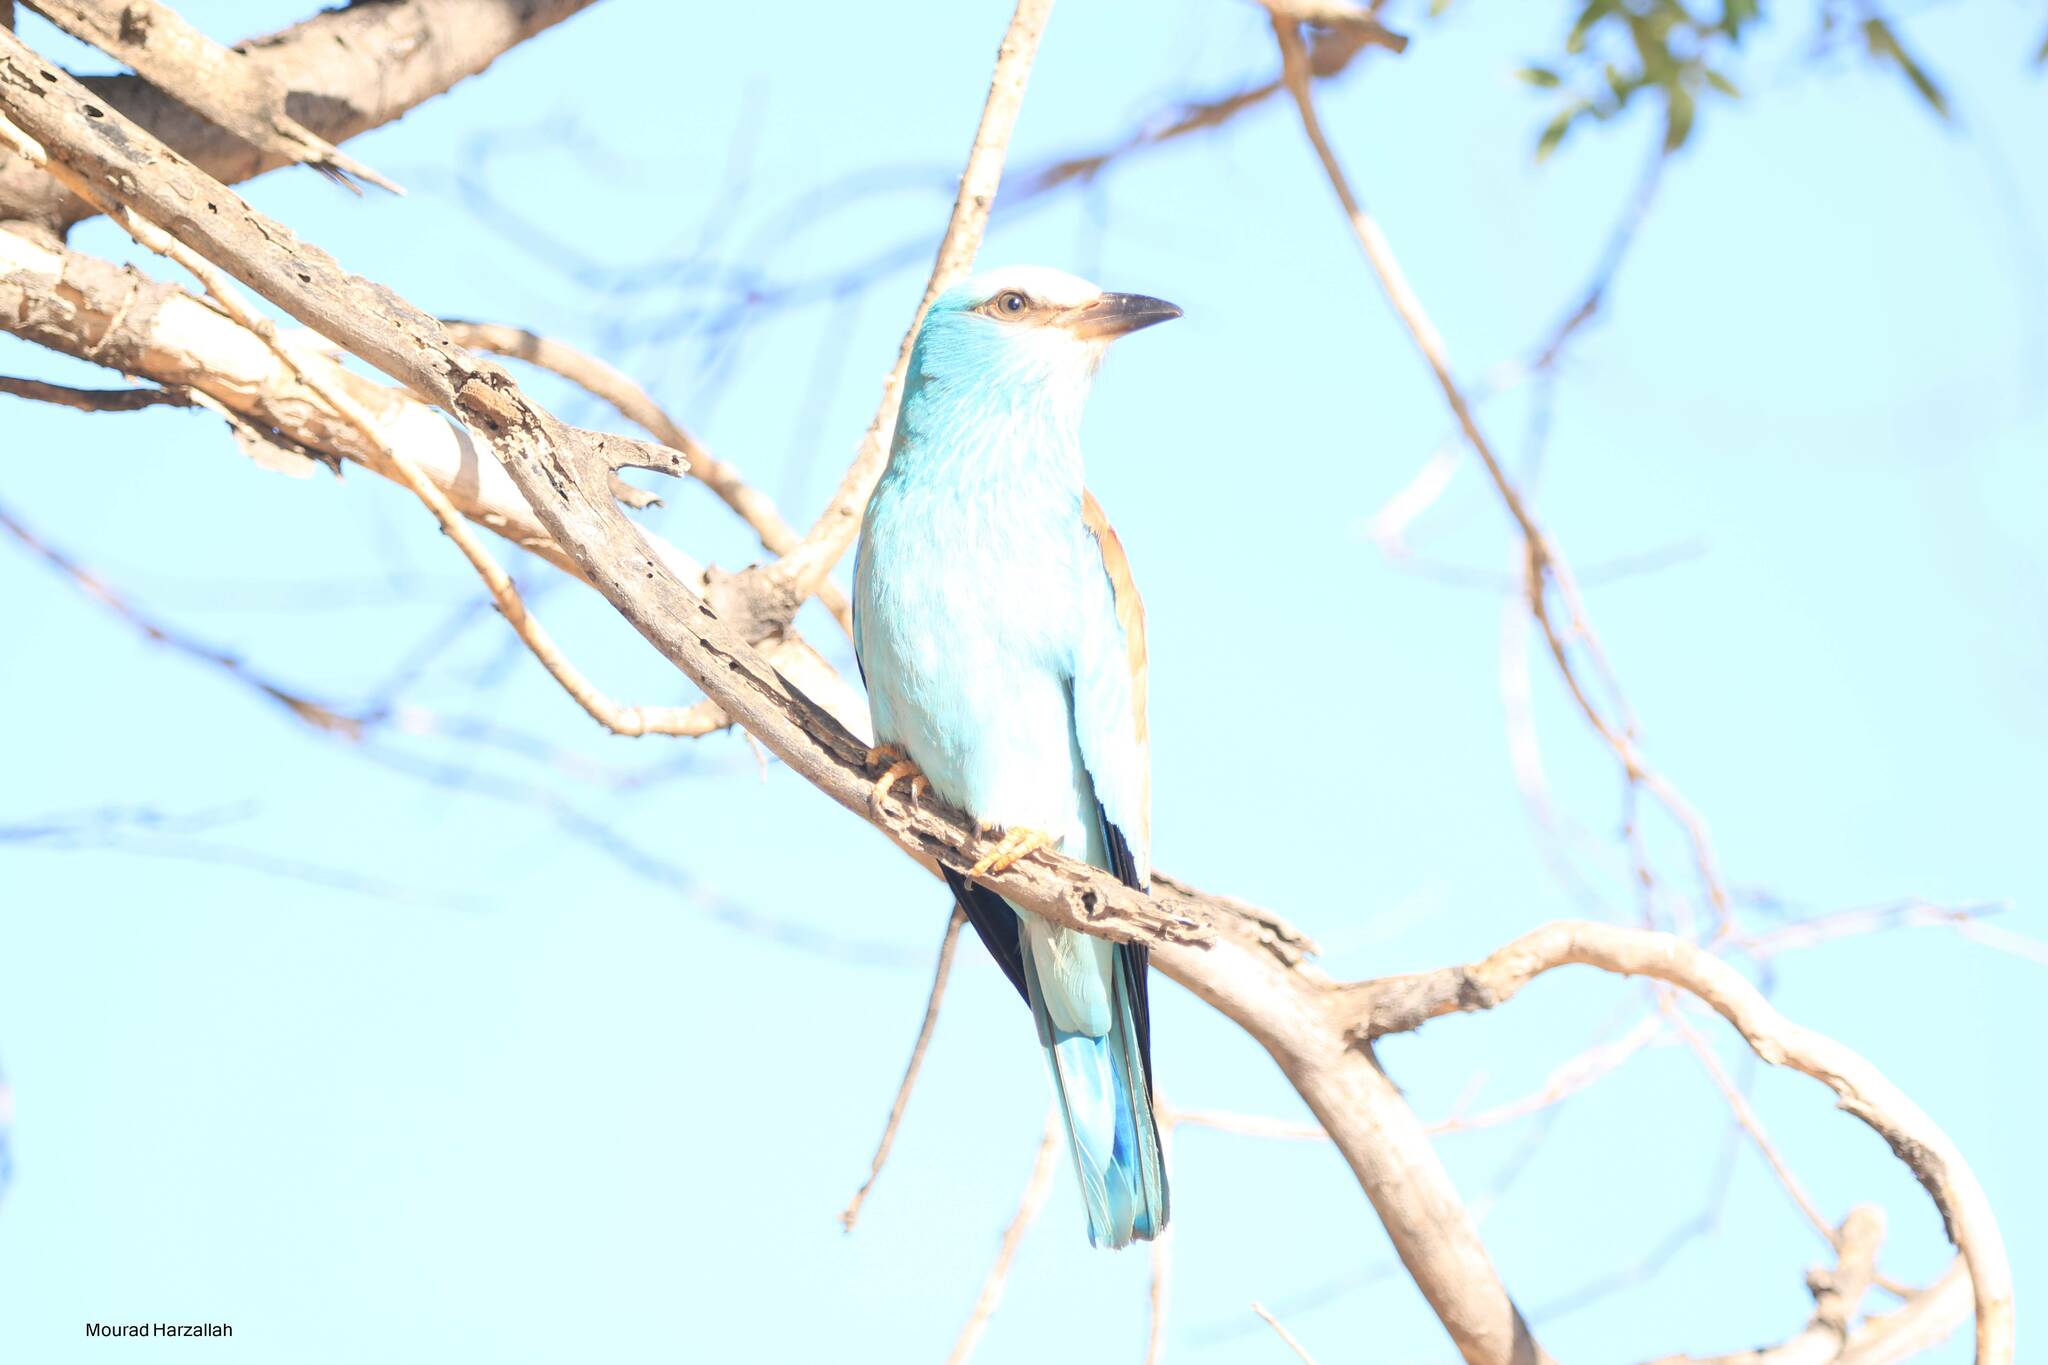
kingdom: Animalia
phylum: Chordata
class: Aves
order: Coraciiformes
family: Coraciidae
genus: Coracias
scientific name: Coracias garrulus
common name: European roller
